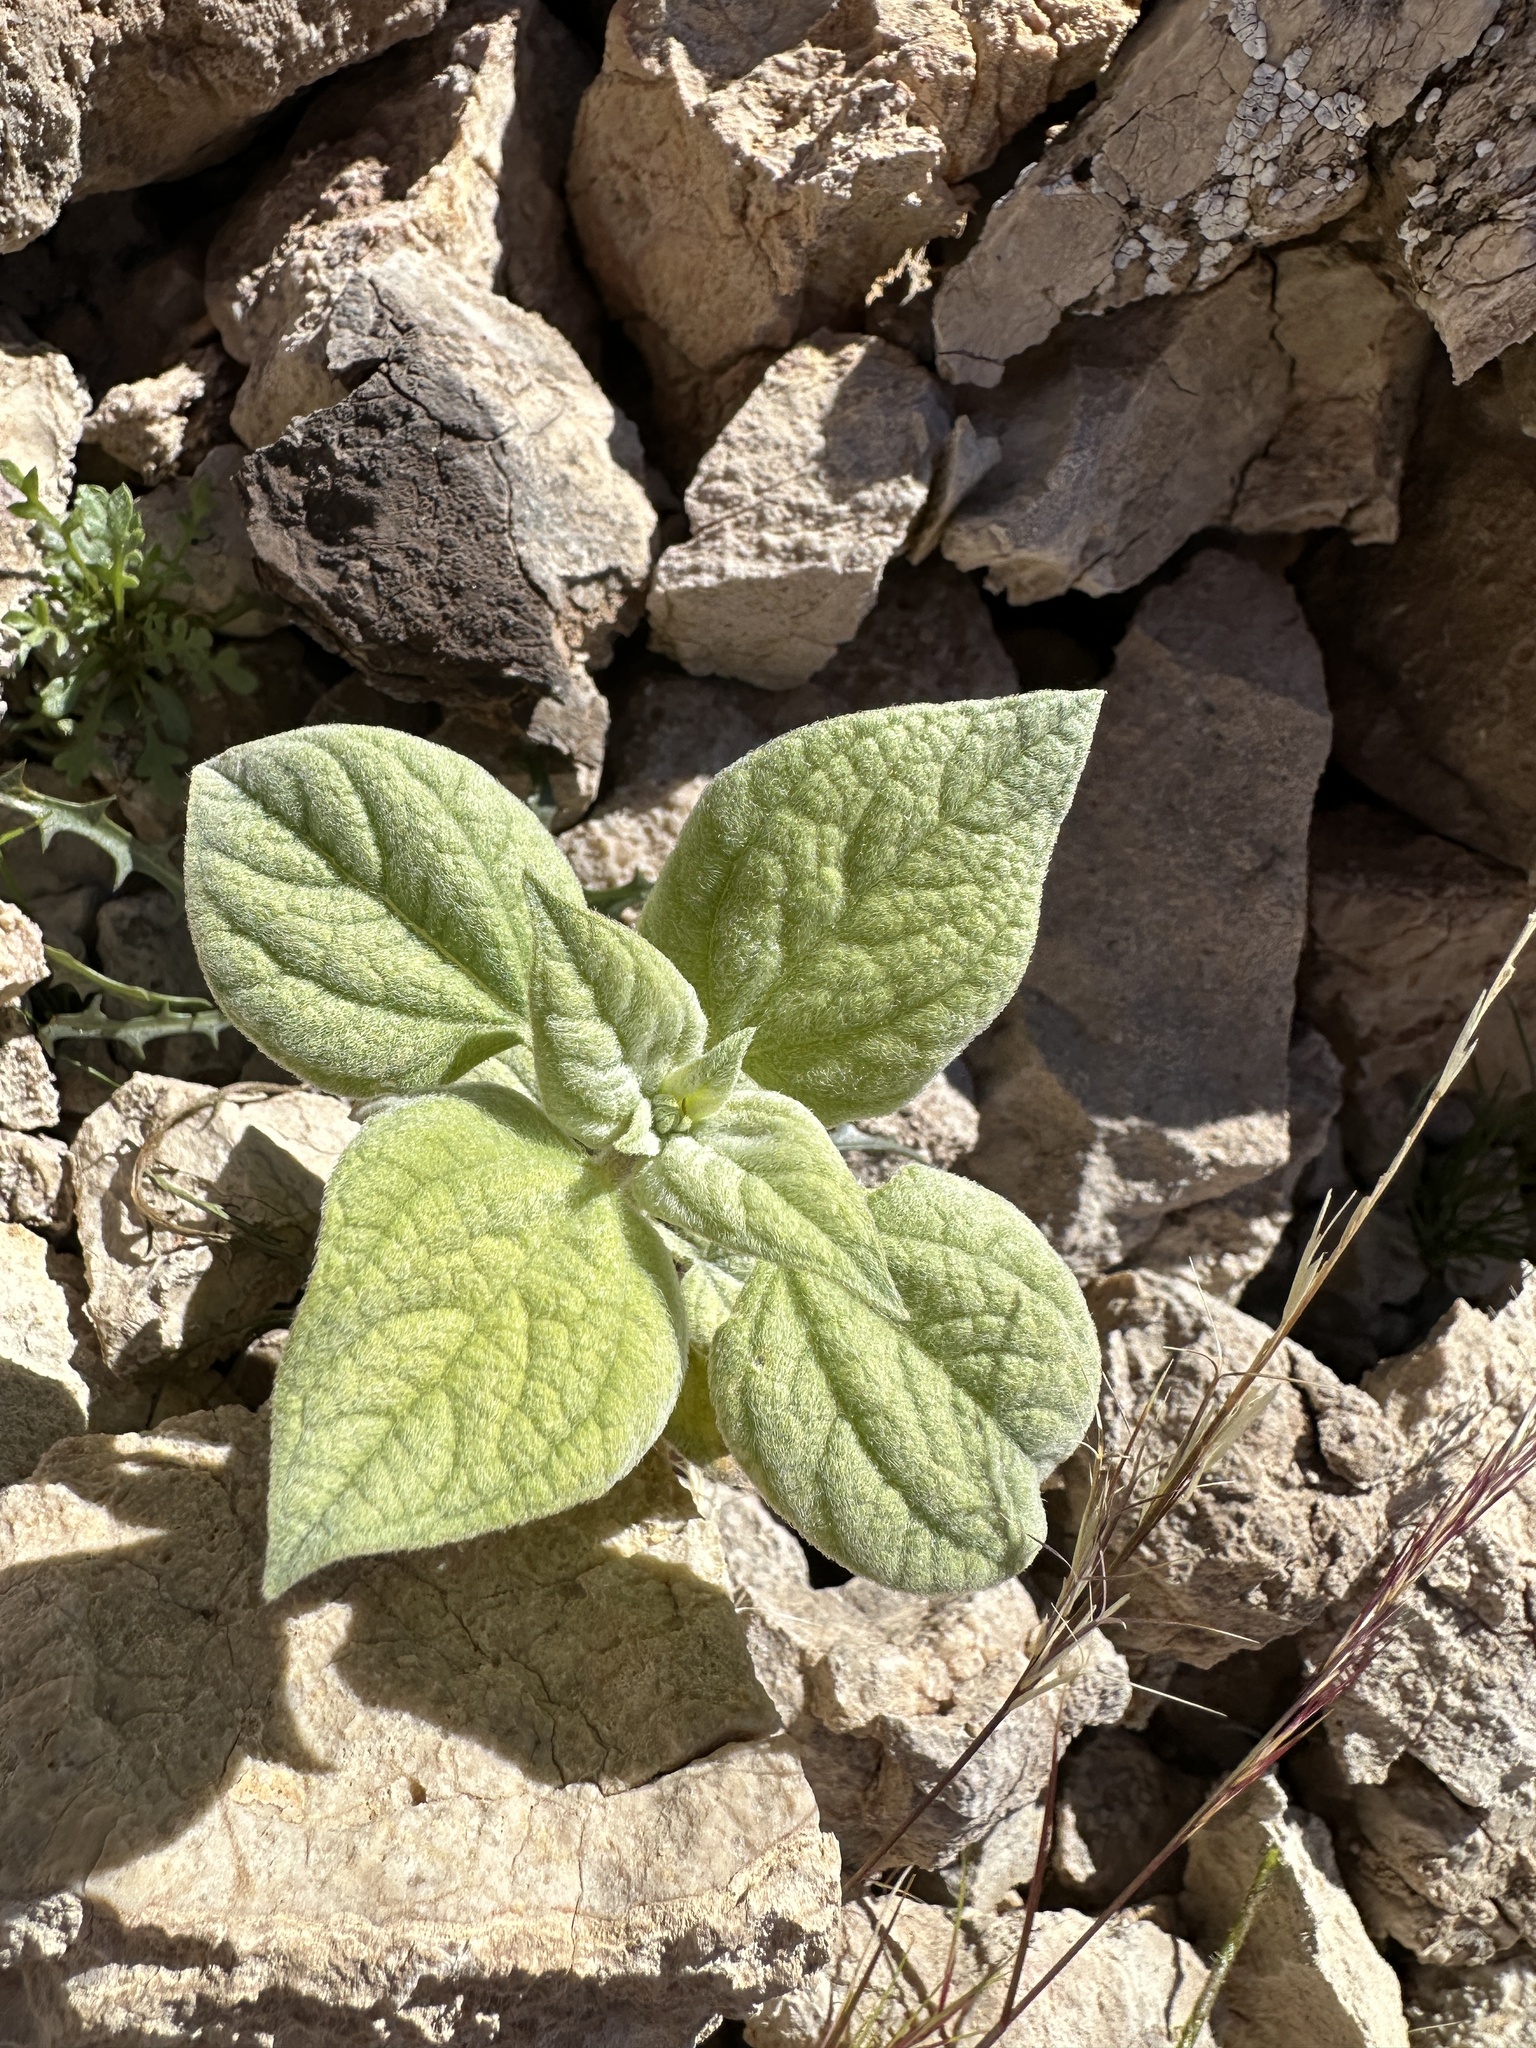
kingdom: Plantae
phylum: Tracheophyta
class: Magnoliopsida
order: Asterales
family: Asteraceae
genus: Bahiopsis
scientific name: Bahiopsis reticulata
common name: Death valley goldeneye
